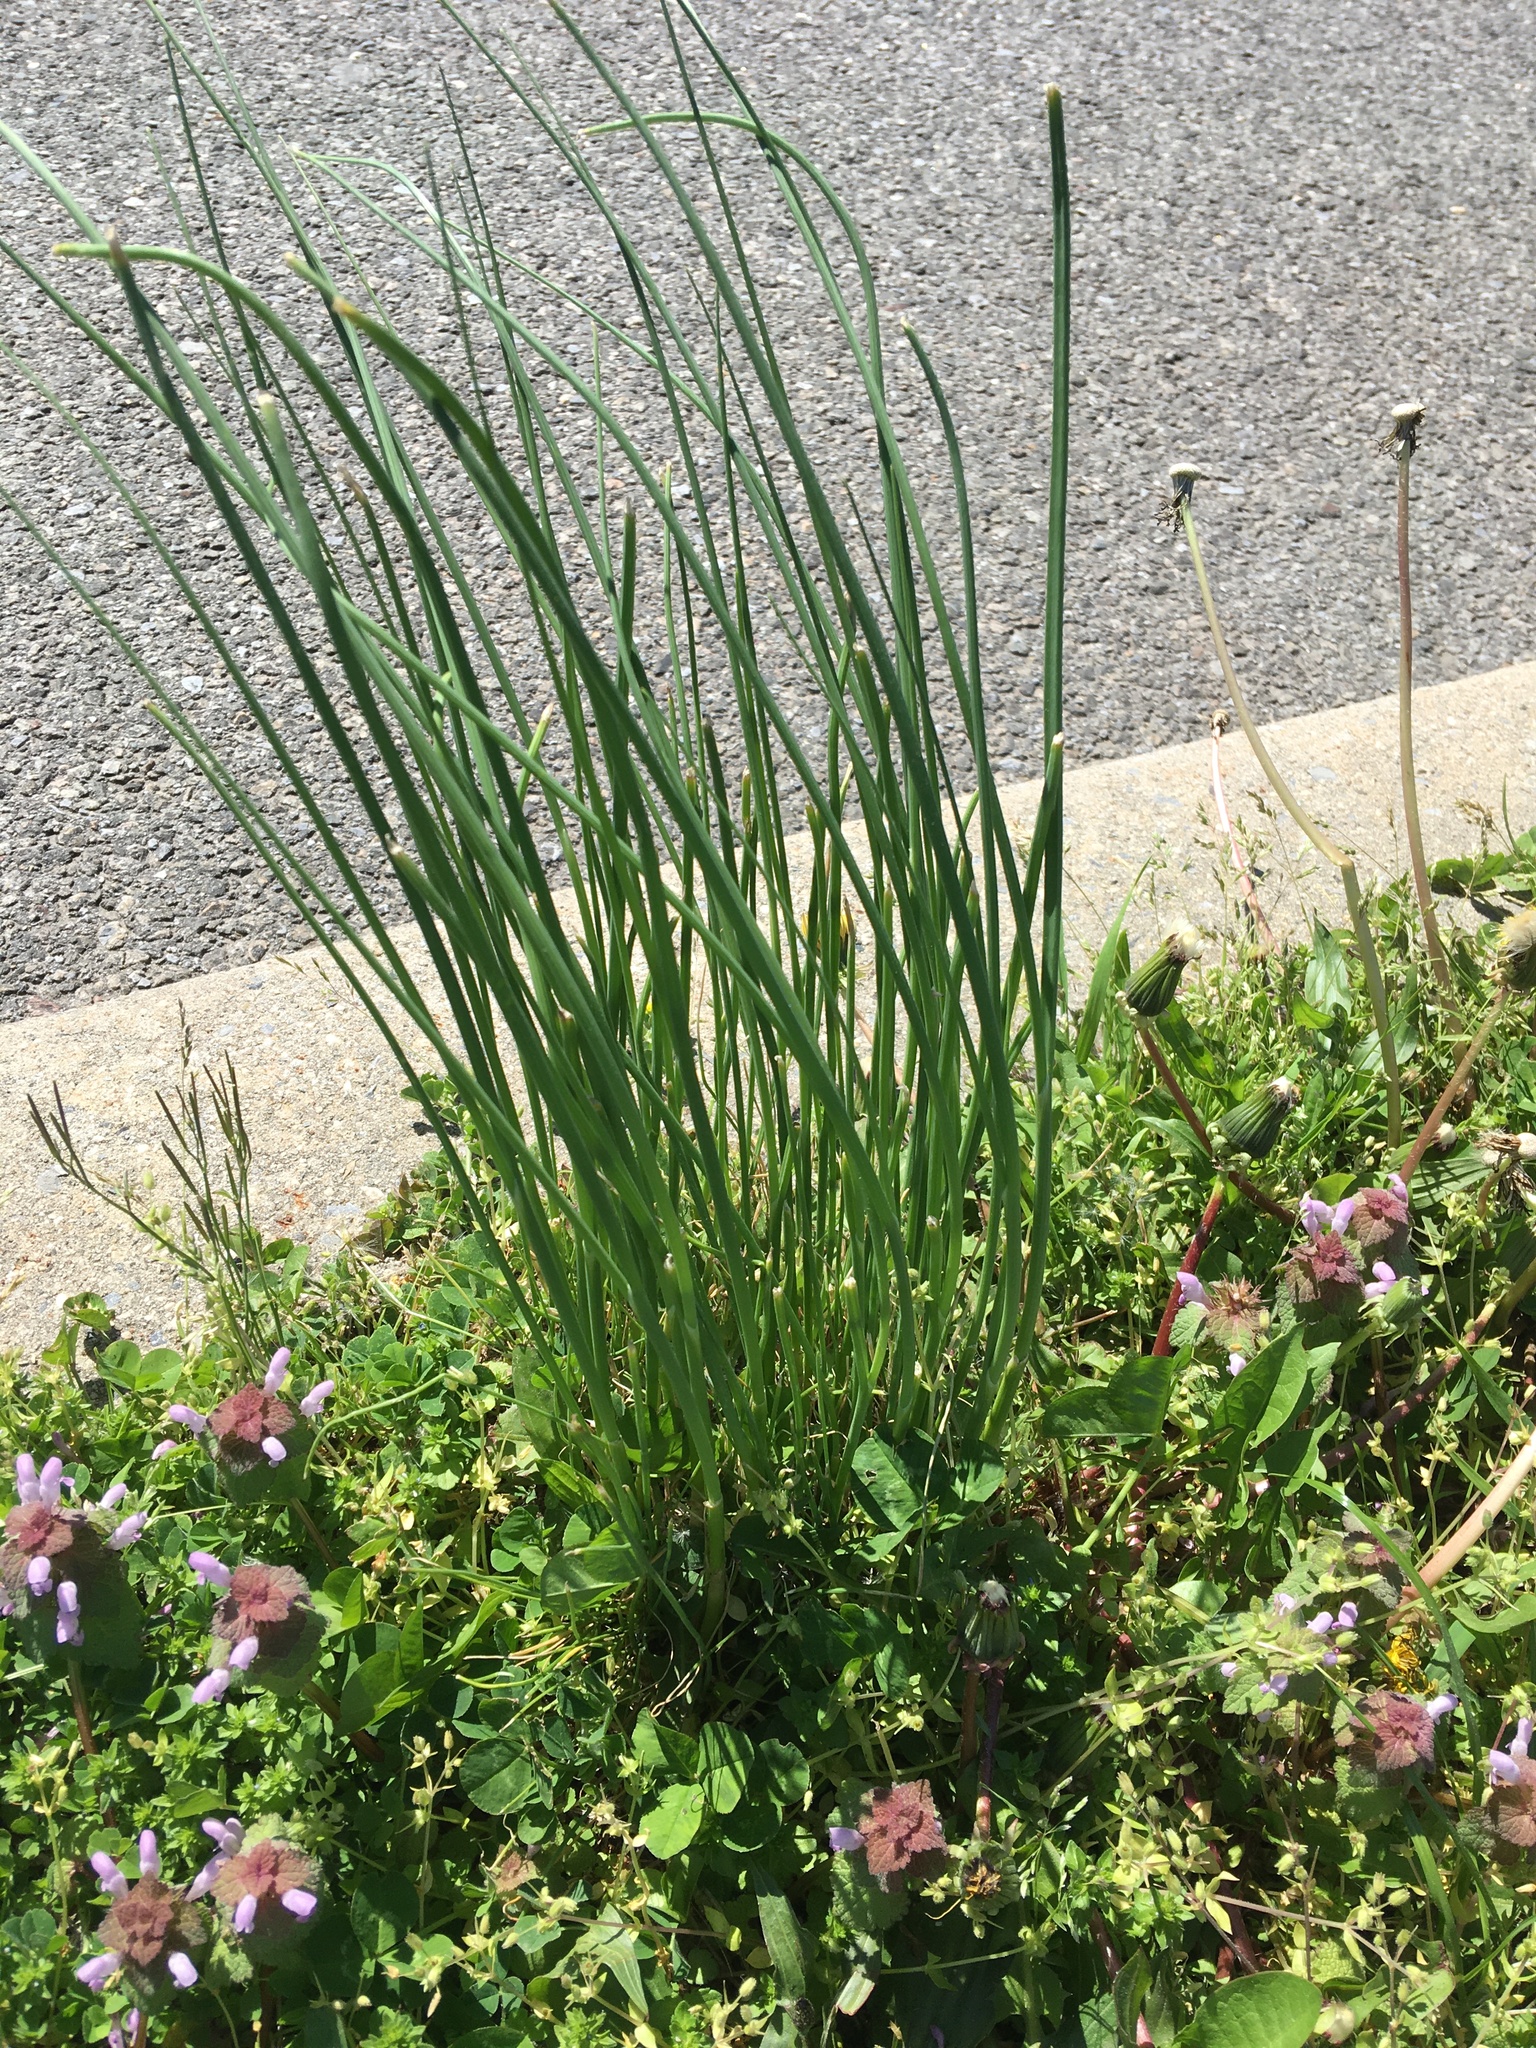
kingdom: Plantae
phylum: Tracheophyta
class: Liliopsida
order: Asparagales
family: Amaryllidaceae
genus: Allium
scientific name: Allium schoenoprasum
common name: Chives
